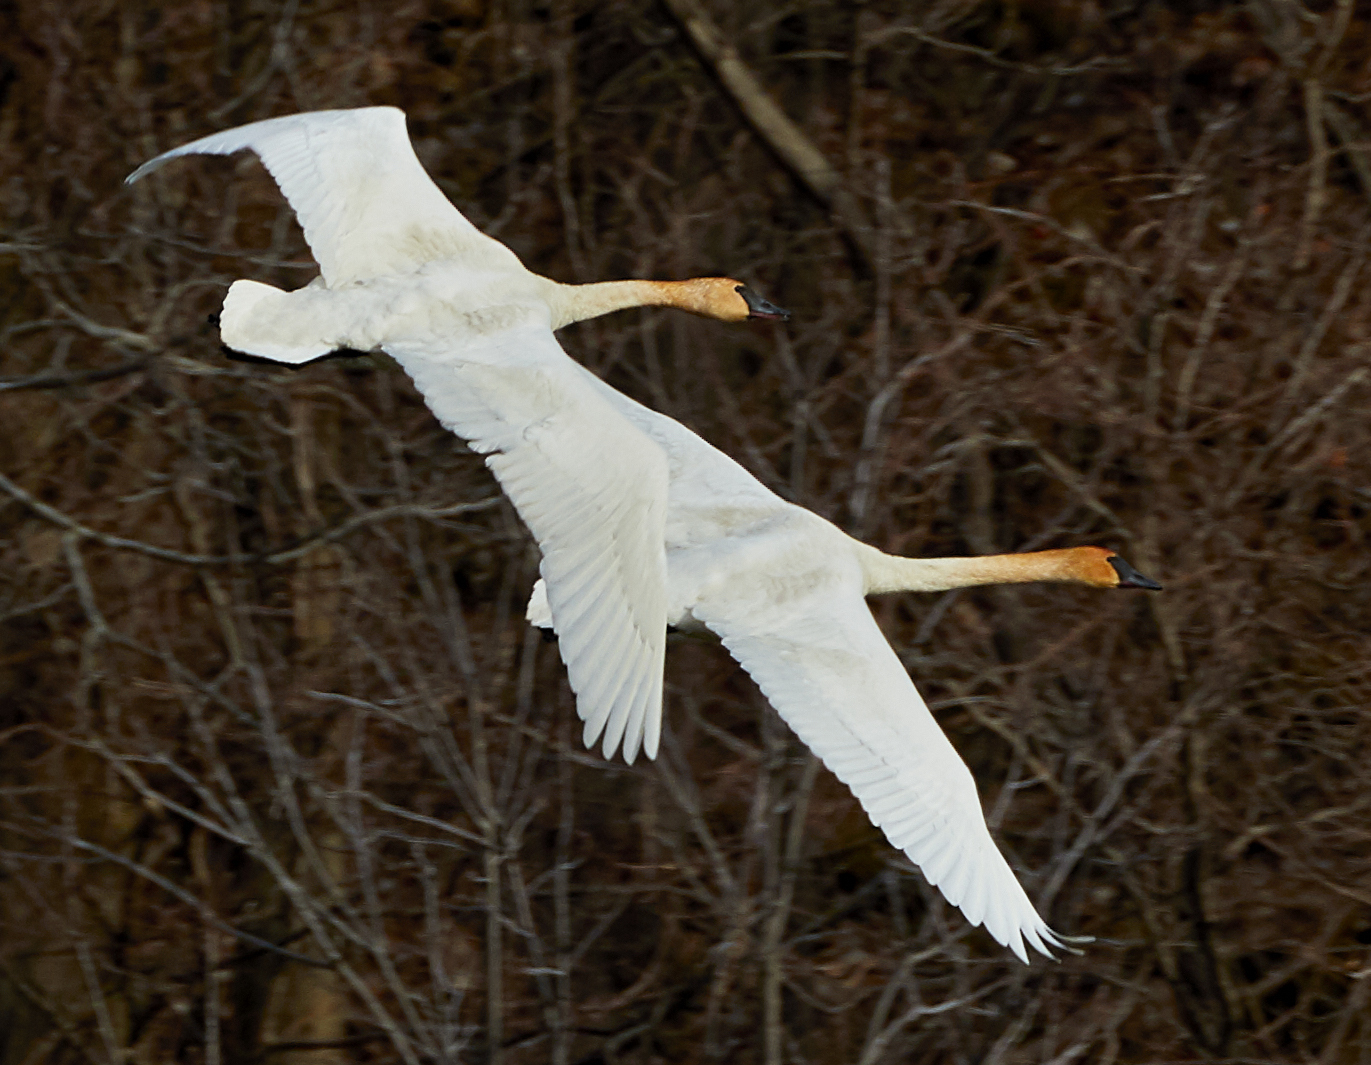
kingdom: Animalia
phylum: Chordata
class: Aves
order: Anseriformes
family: Anatidae
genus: Cygnus
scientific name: Cygnus buccinator
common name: Trumpeter swan
